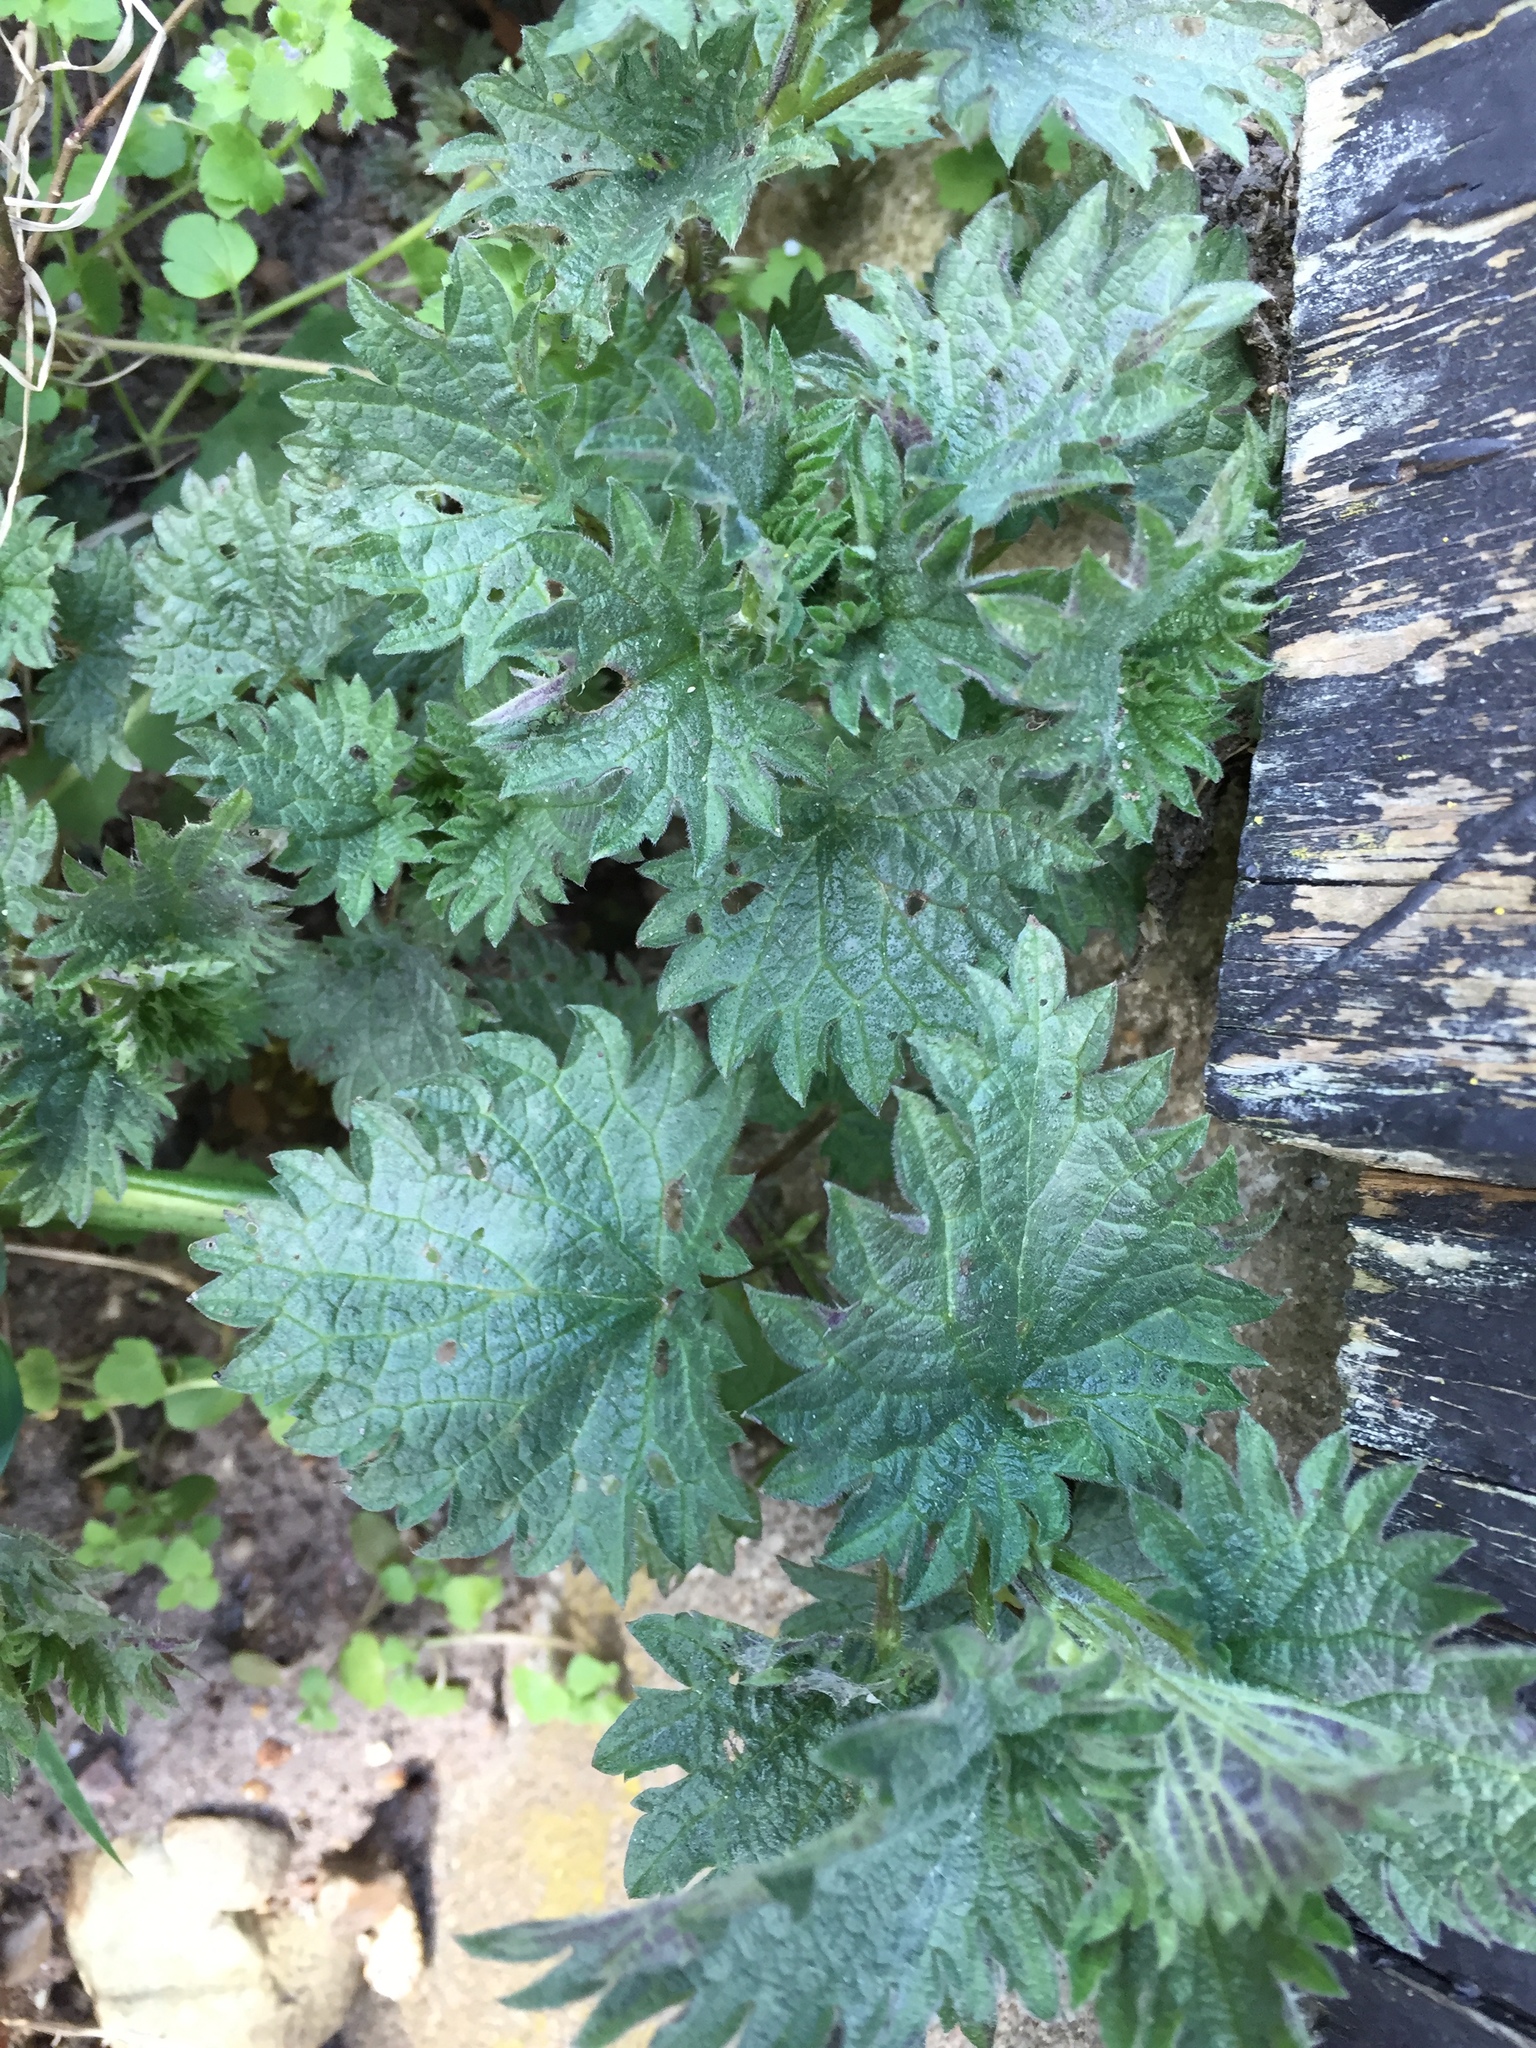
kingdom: Plantae
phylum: Tracheophyta
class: Magnoliopsida
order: Rosales
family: Urticaceae
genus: Urtica
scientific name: Urtica dioica
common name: Common nettle
